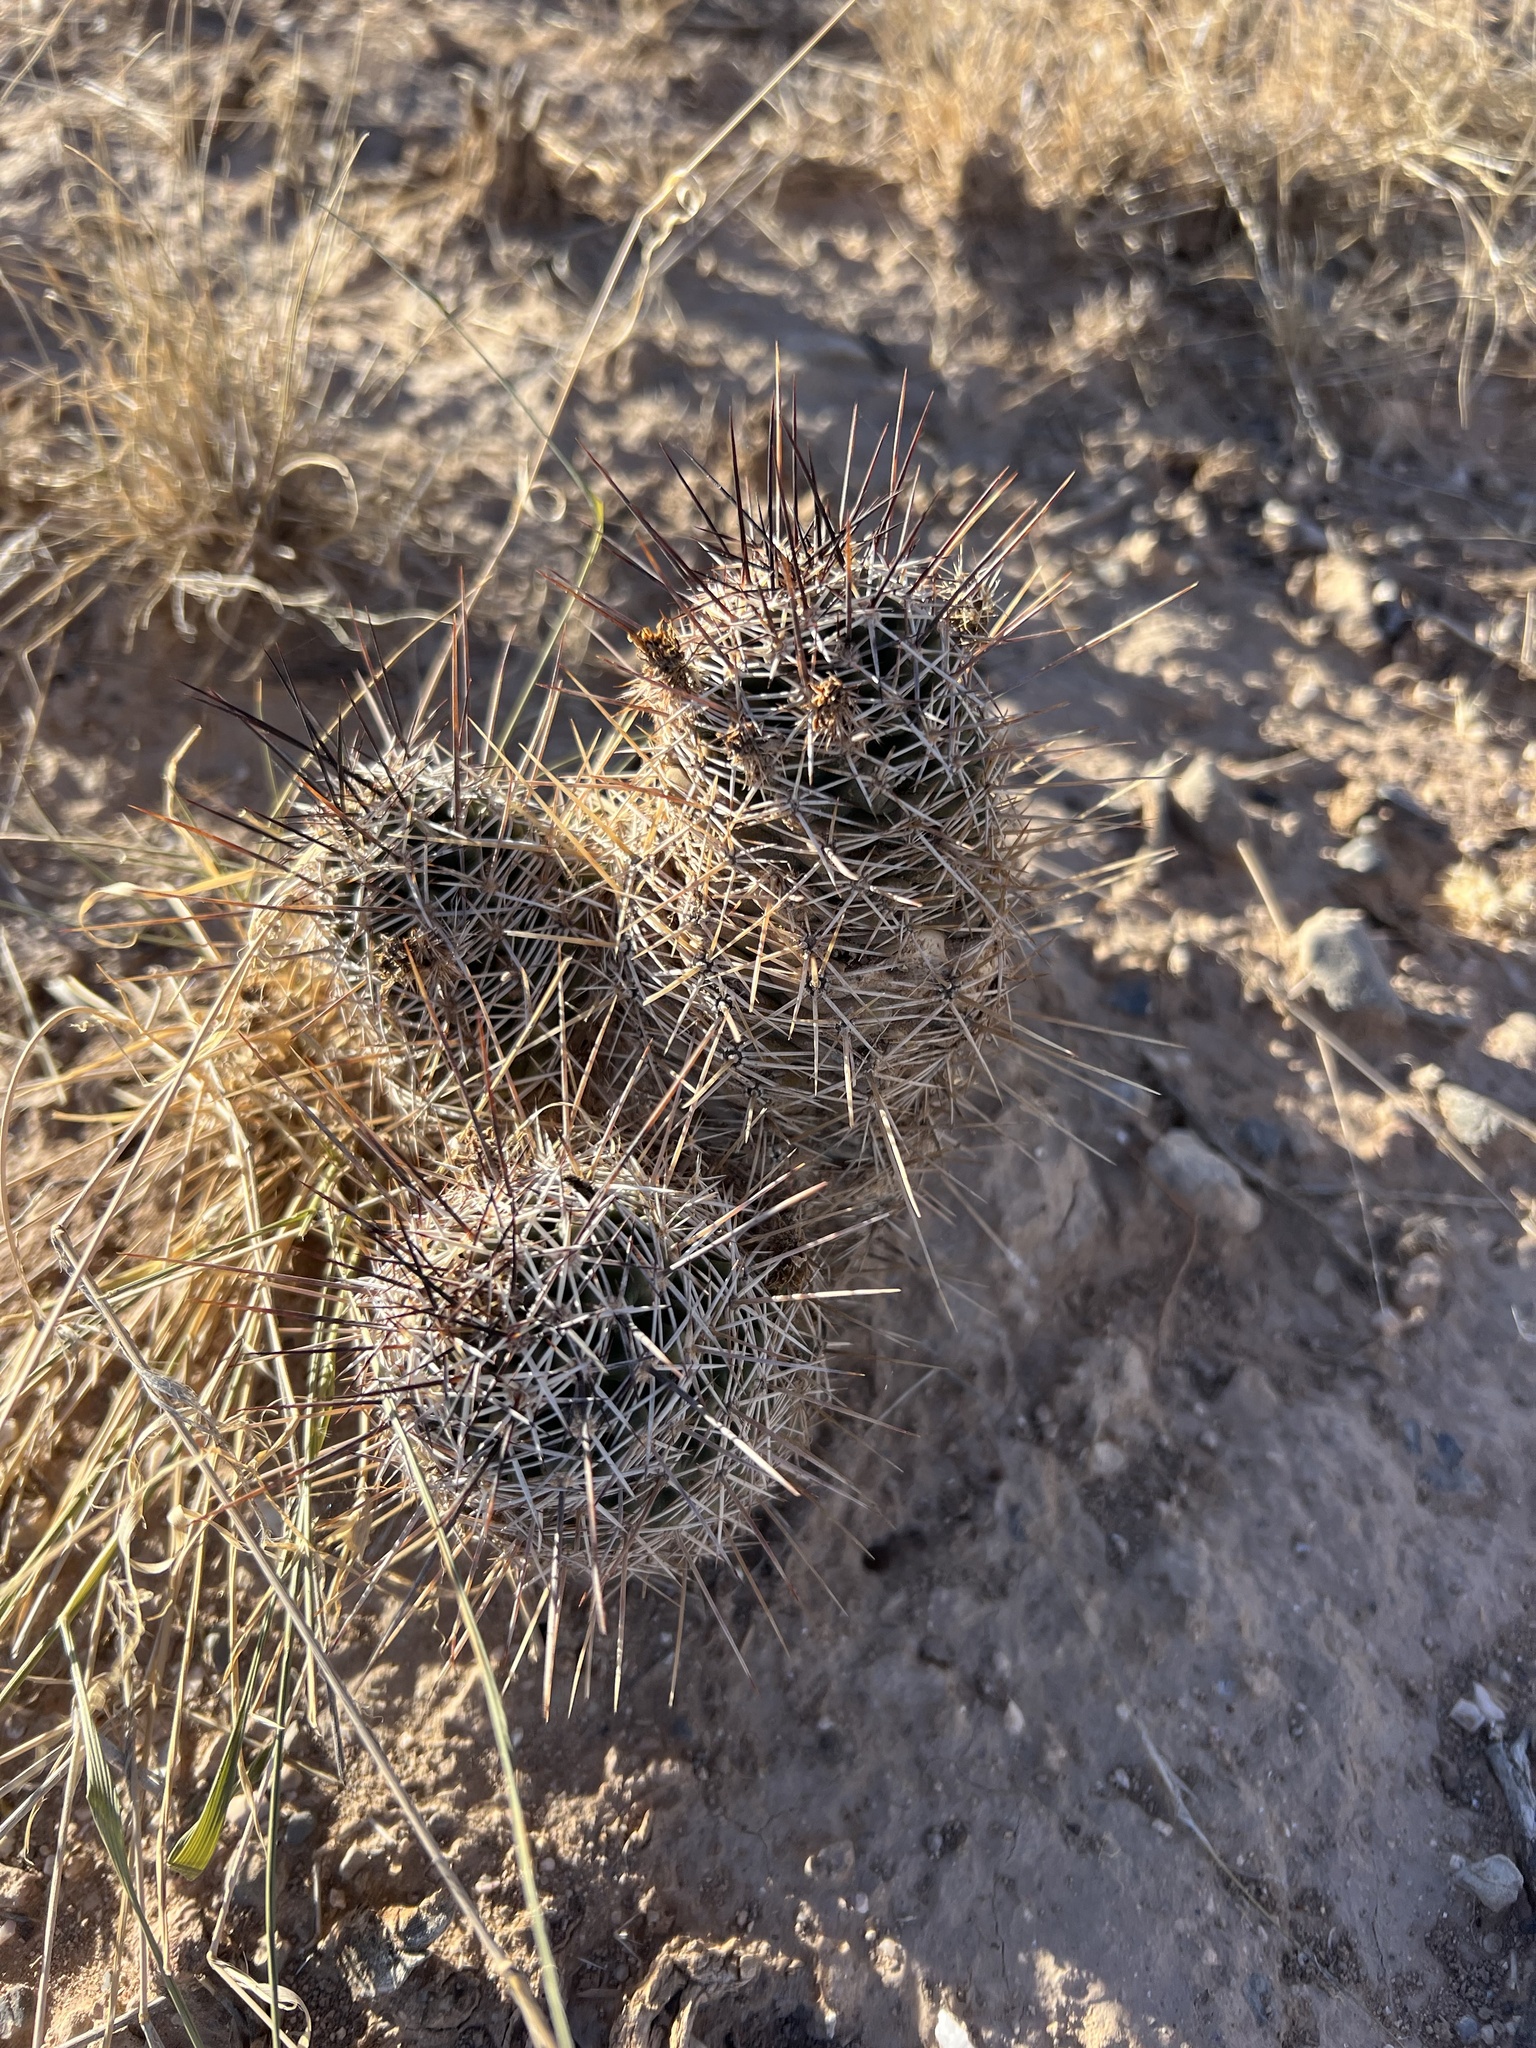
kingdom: Plantae
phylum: Tracheophyta
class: Magnoliopsida
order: Caryophyllales
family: Cactaceae
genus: Echinocereus
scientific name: Echinocereus fendleri
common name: Fendler's hedgehog cactus
